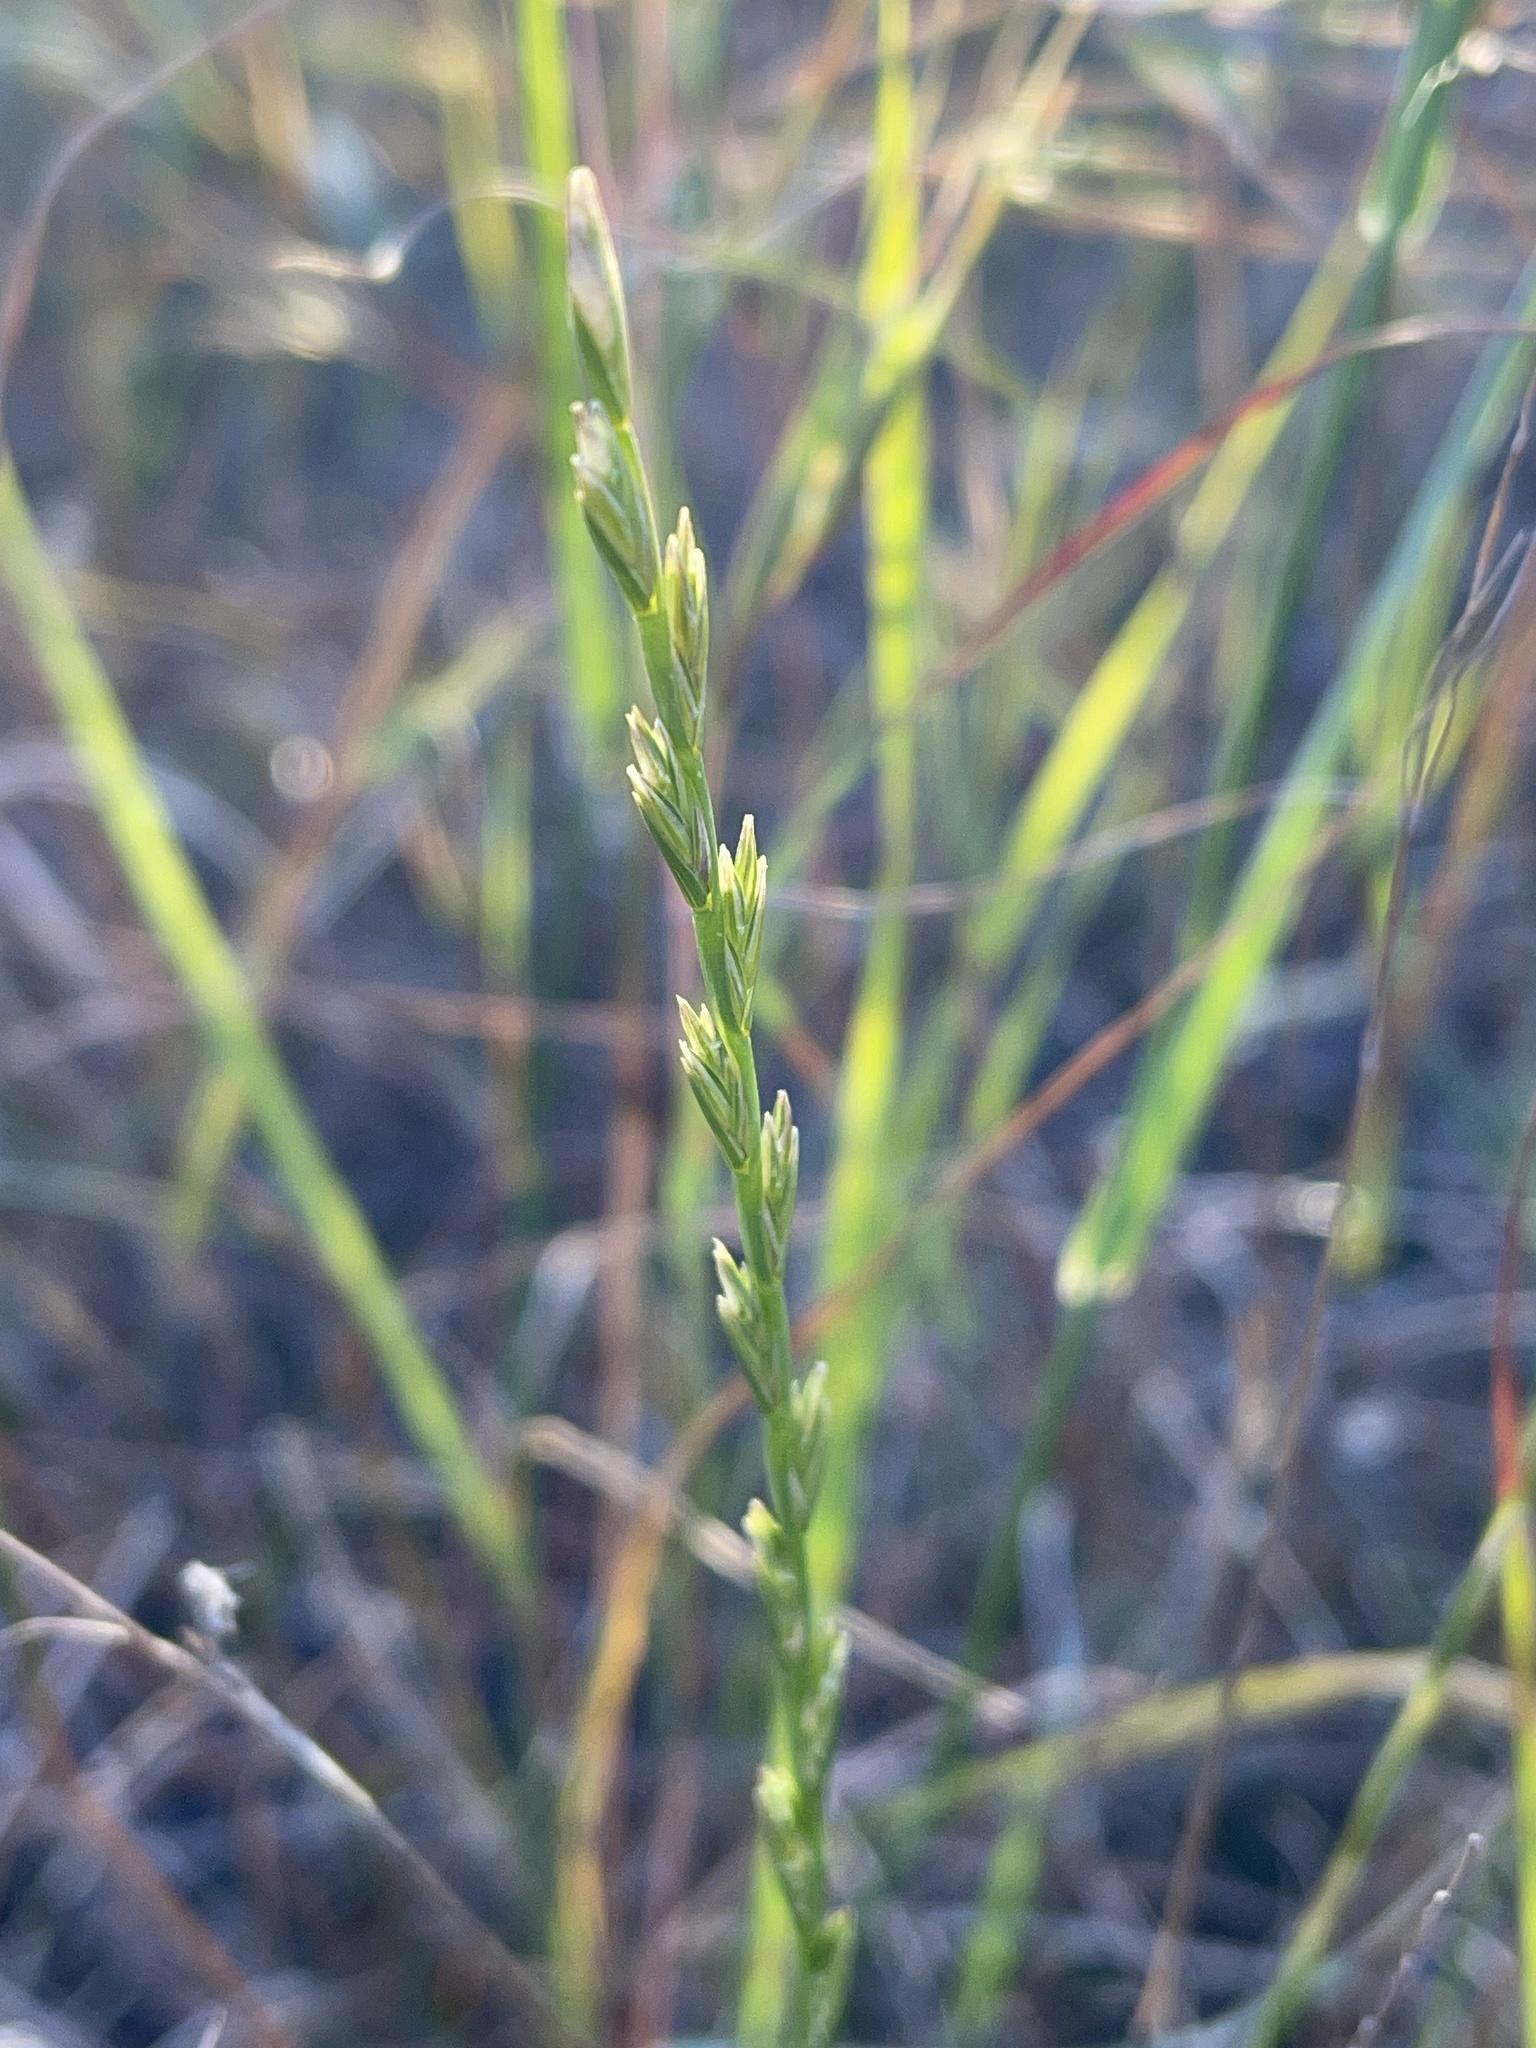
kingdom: Plantae
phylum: Tracheophyta
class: Liliopsida
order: Poales
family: Poaceae
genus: Lolium
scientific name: Lolium perenne
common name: Perennial ryegrass
